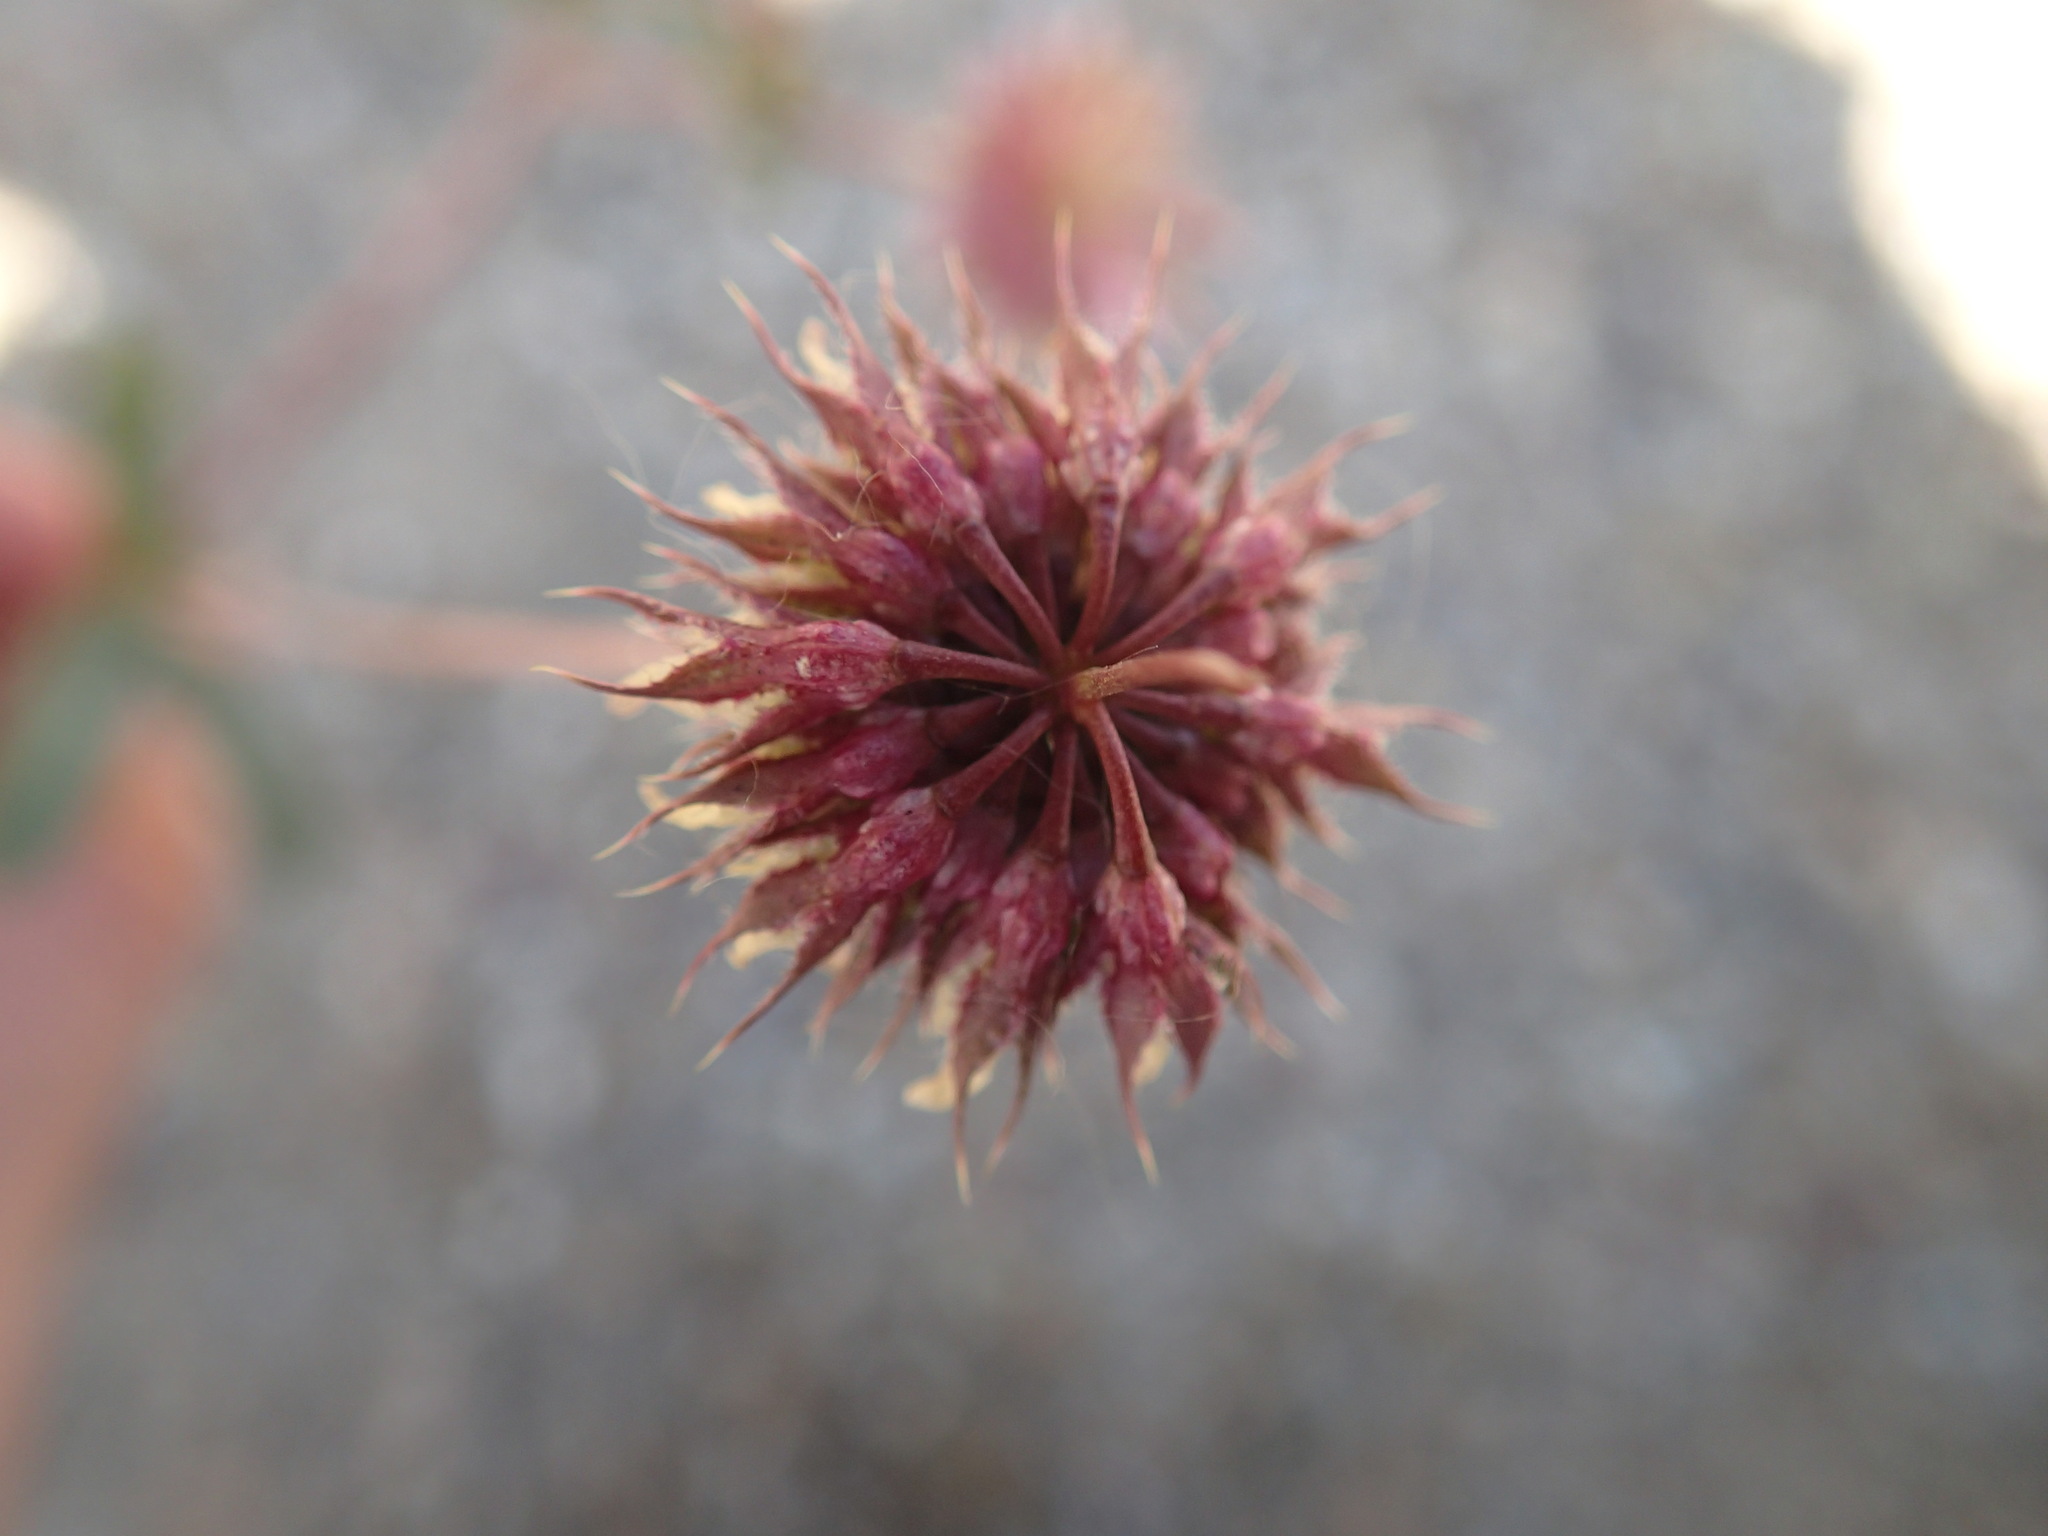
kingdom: Plantae
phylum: Tracheophyta
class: Magnoliopsida
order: Fabales
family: Fabaceae
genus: Trifolium
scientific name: Trifolium ciliolatum
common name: Foothill clover
